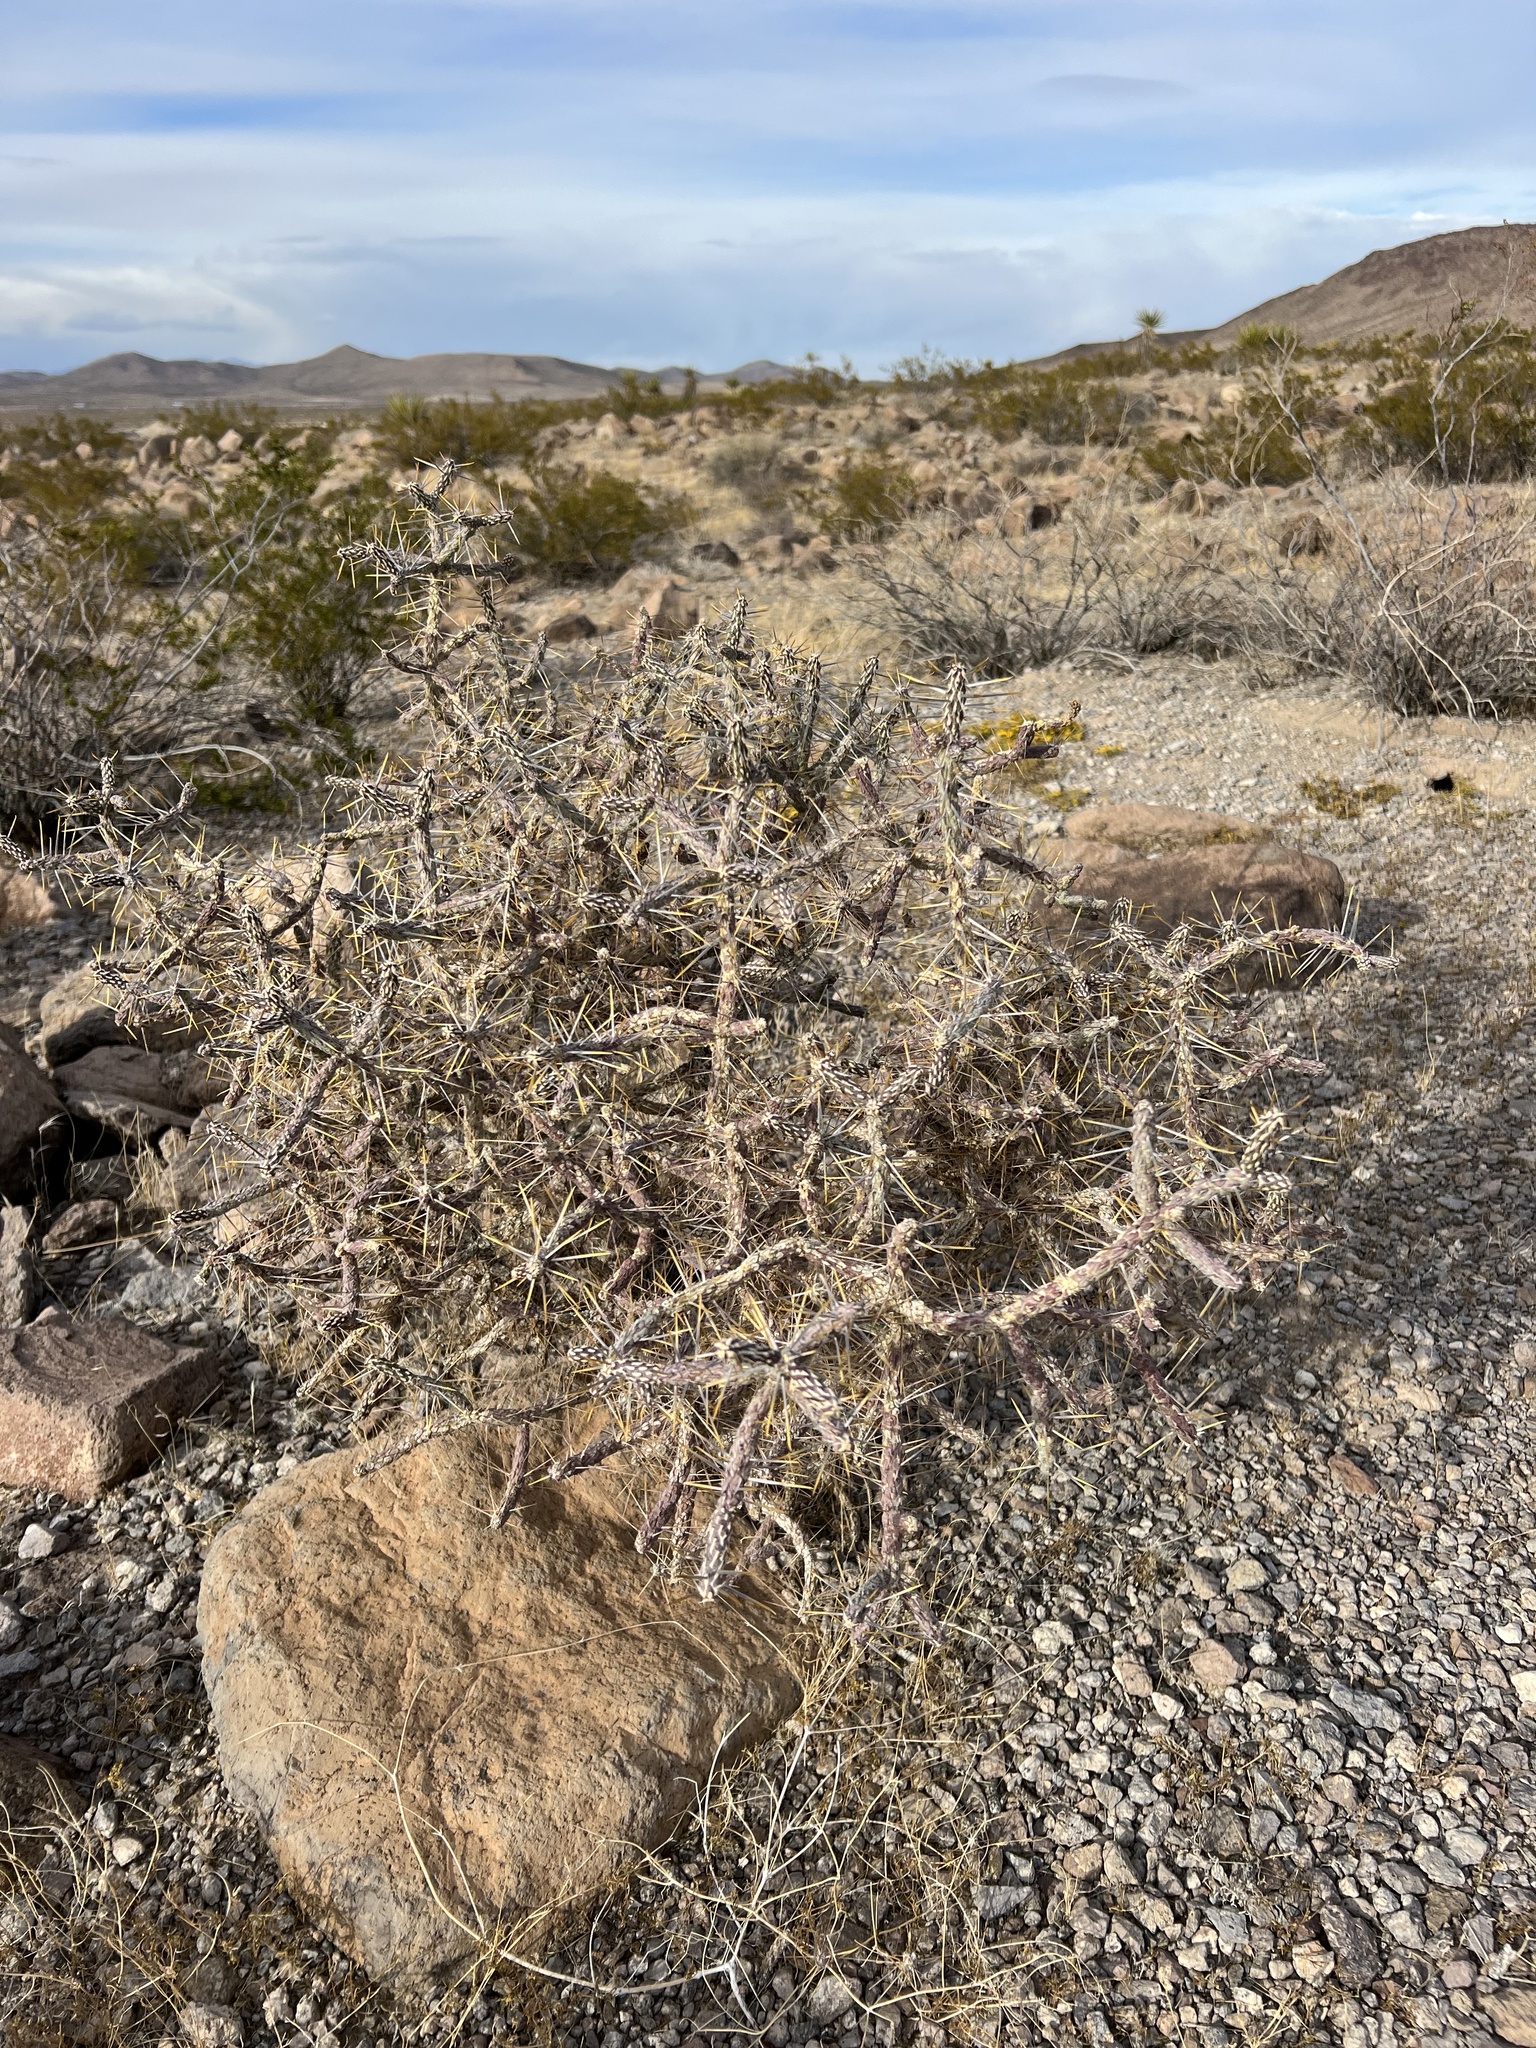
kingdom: Plantae
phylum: Tracheophyta
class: Magnoliopsida
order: Caryophyllales
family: Cactaceae
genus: Cylindropuntia
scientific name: Cylindropuntia ramosissima
